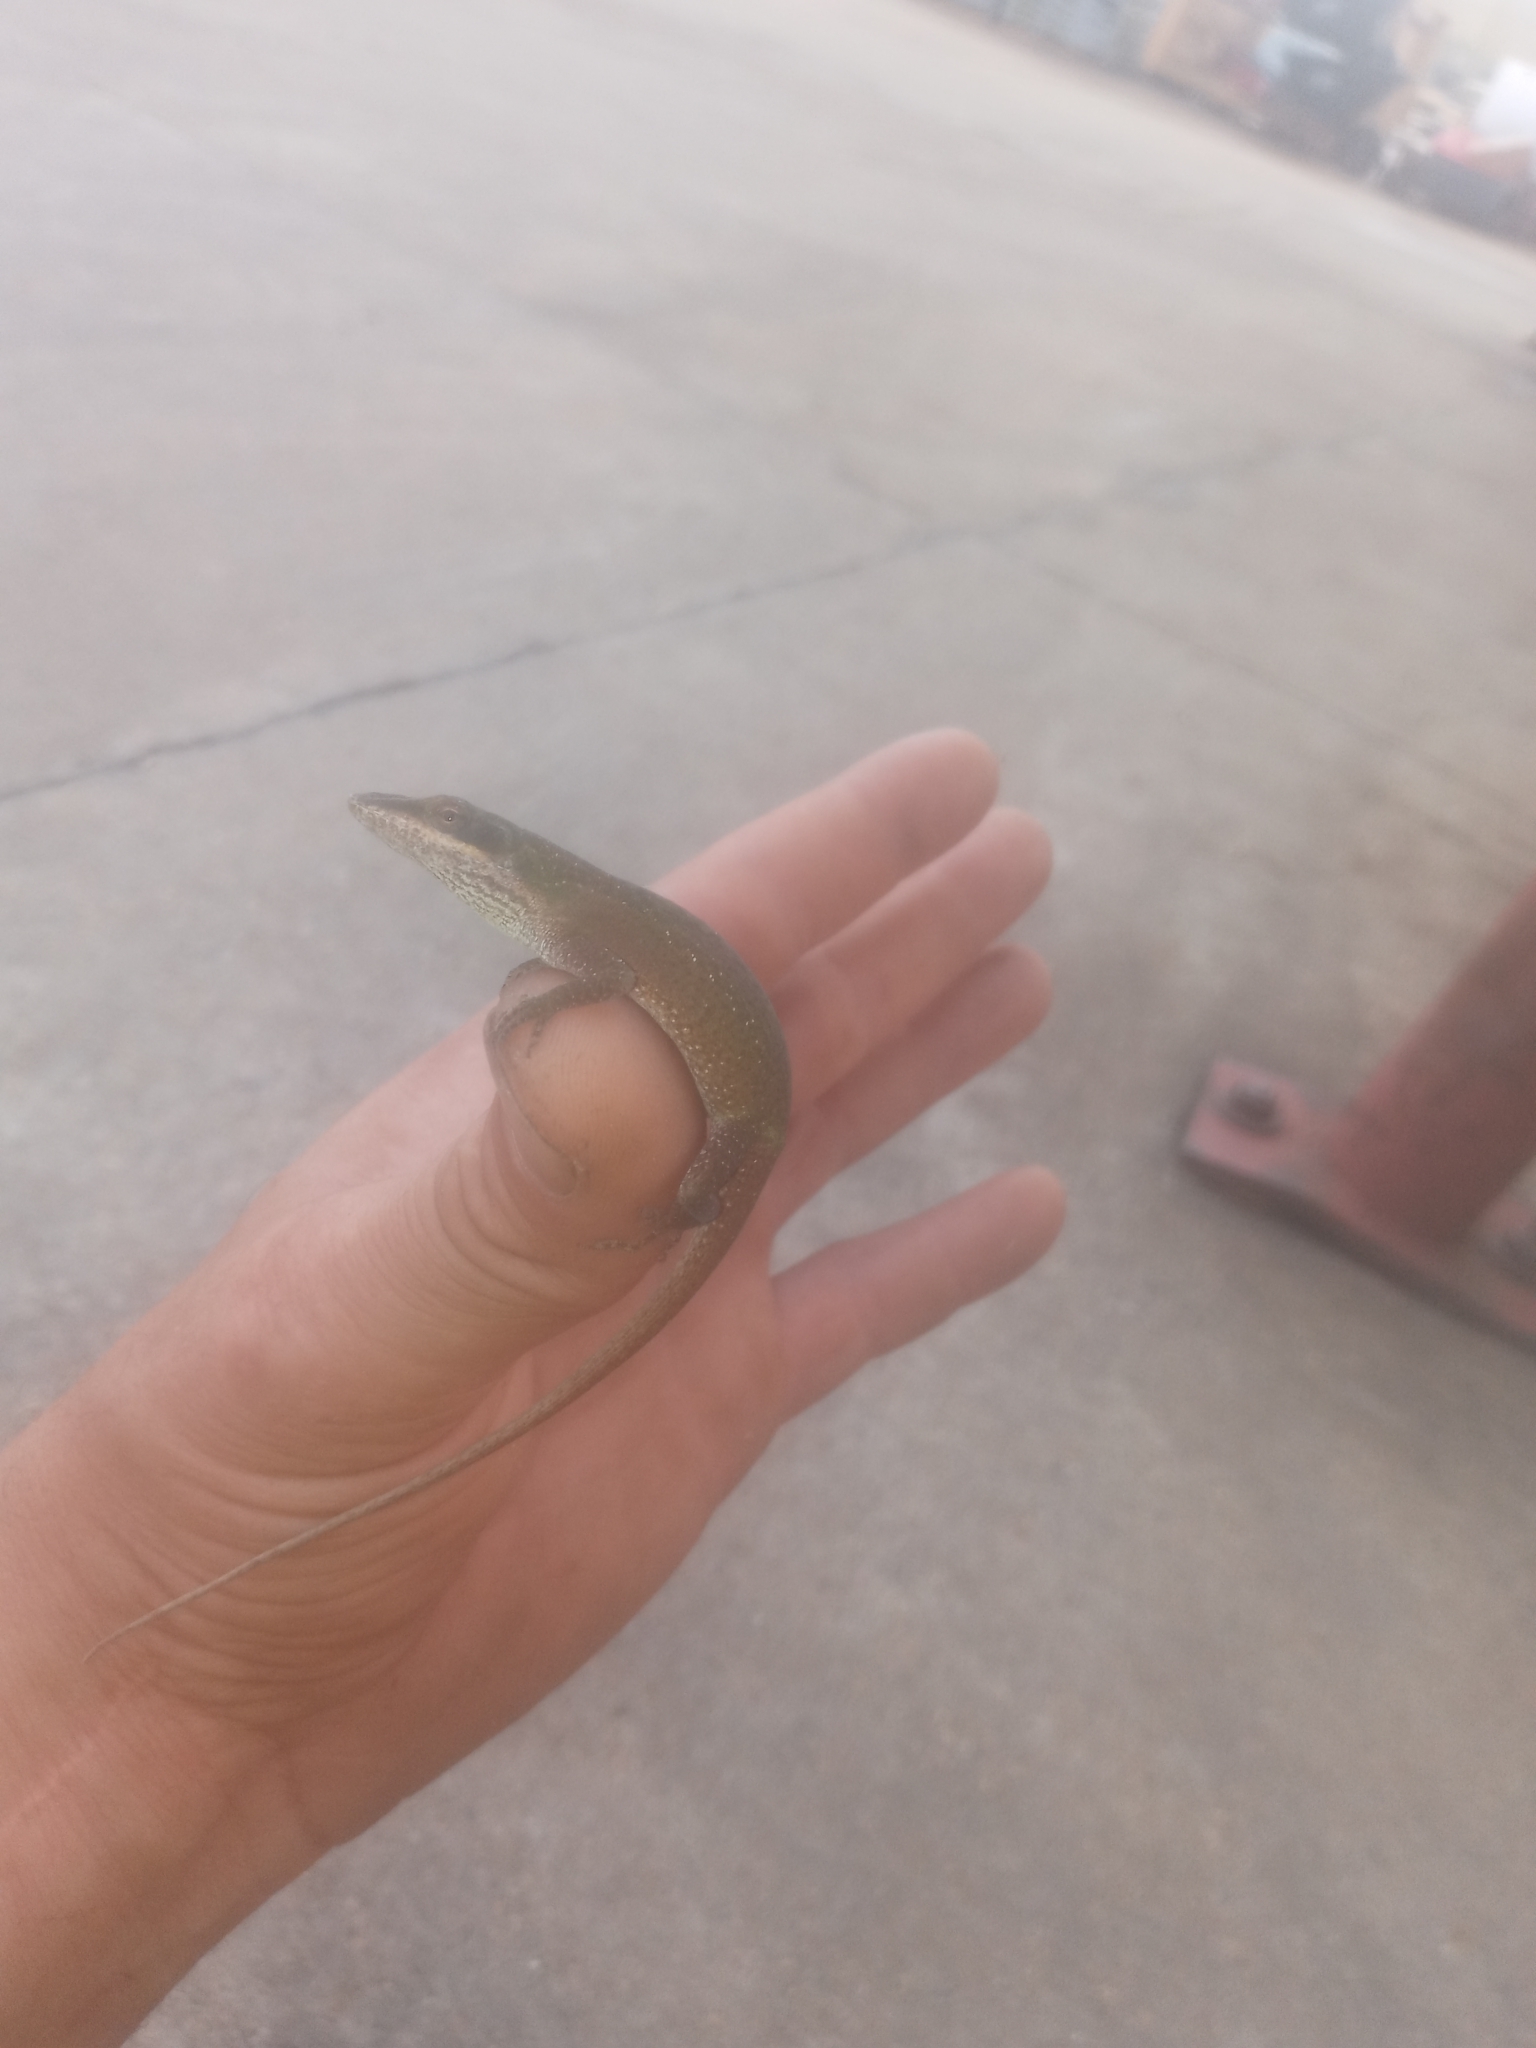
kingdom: Animalia
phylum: Chordata
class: Squamata
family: Dactyloidae
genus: Anolis
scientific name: Anolis carolinensis
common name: Green anole
